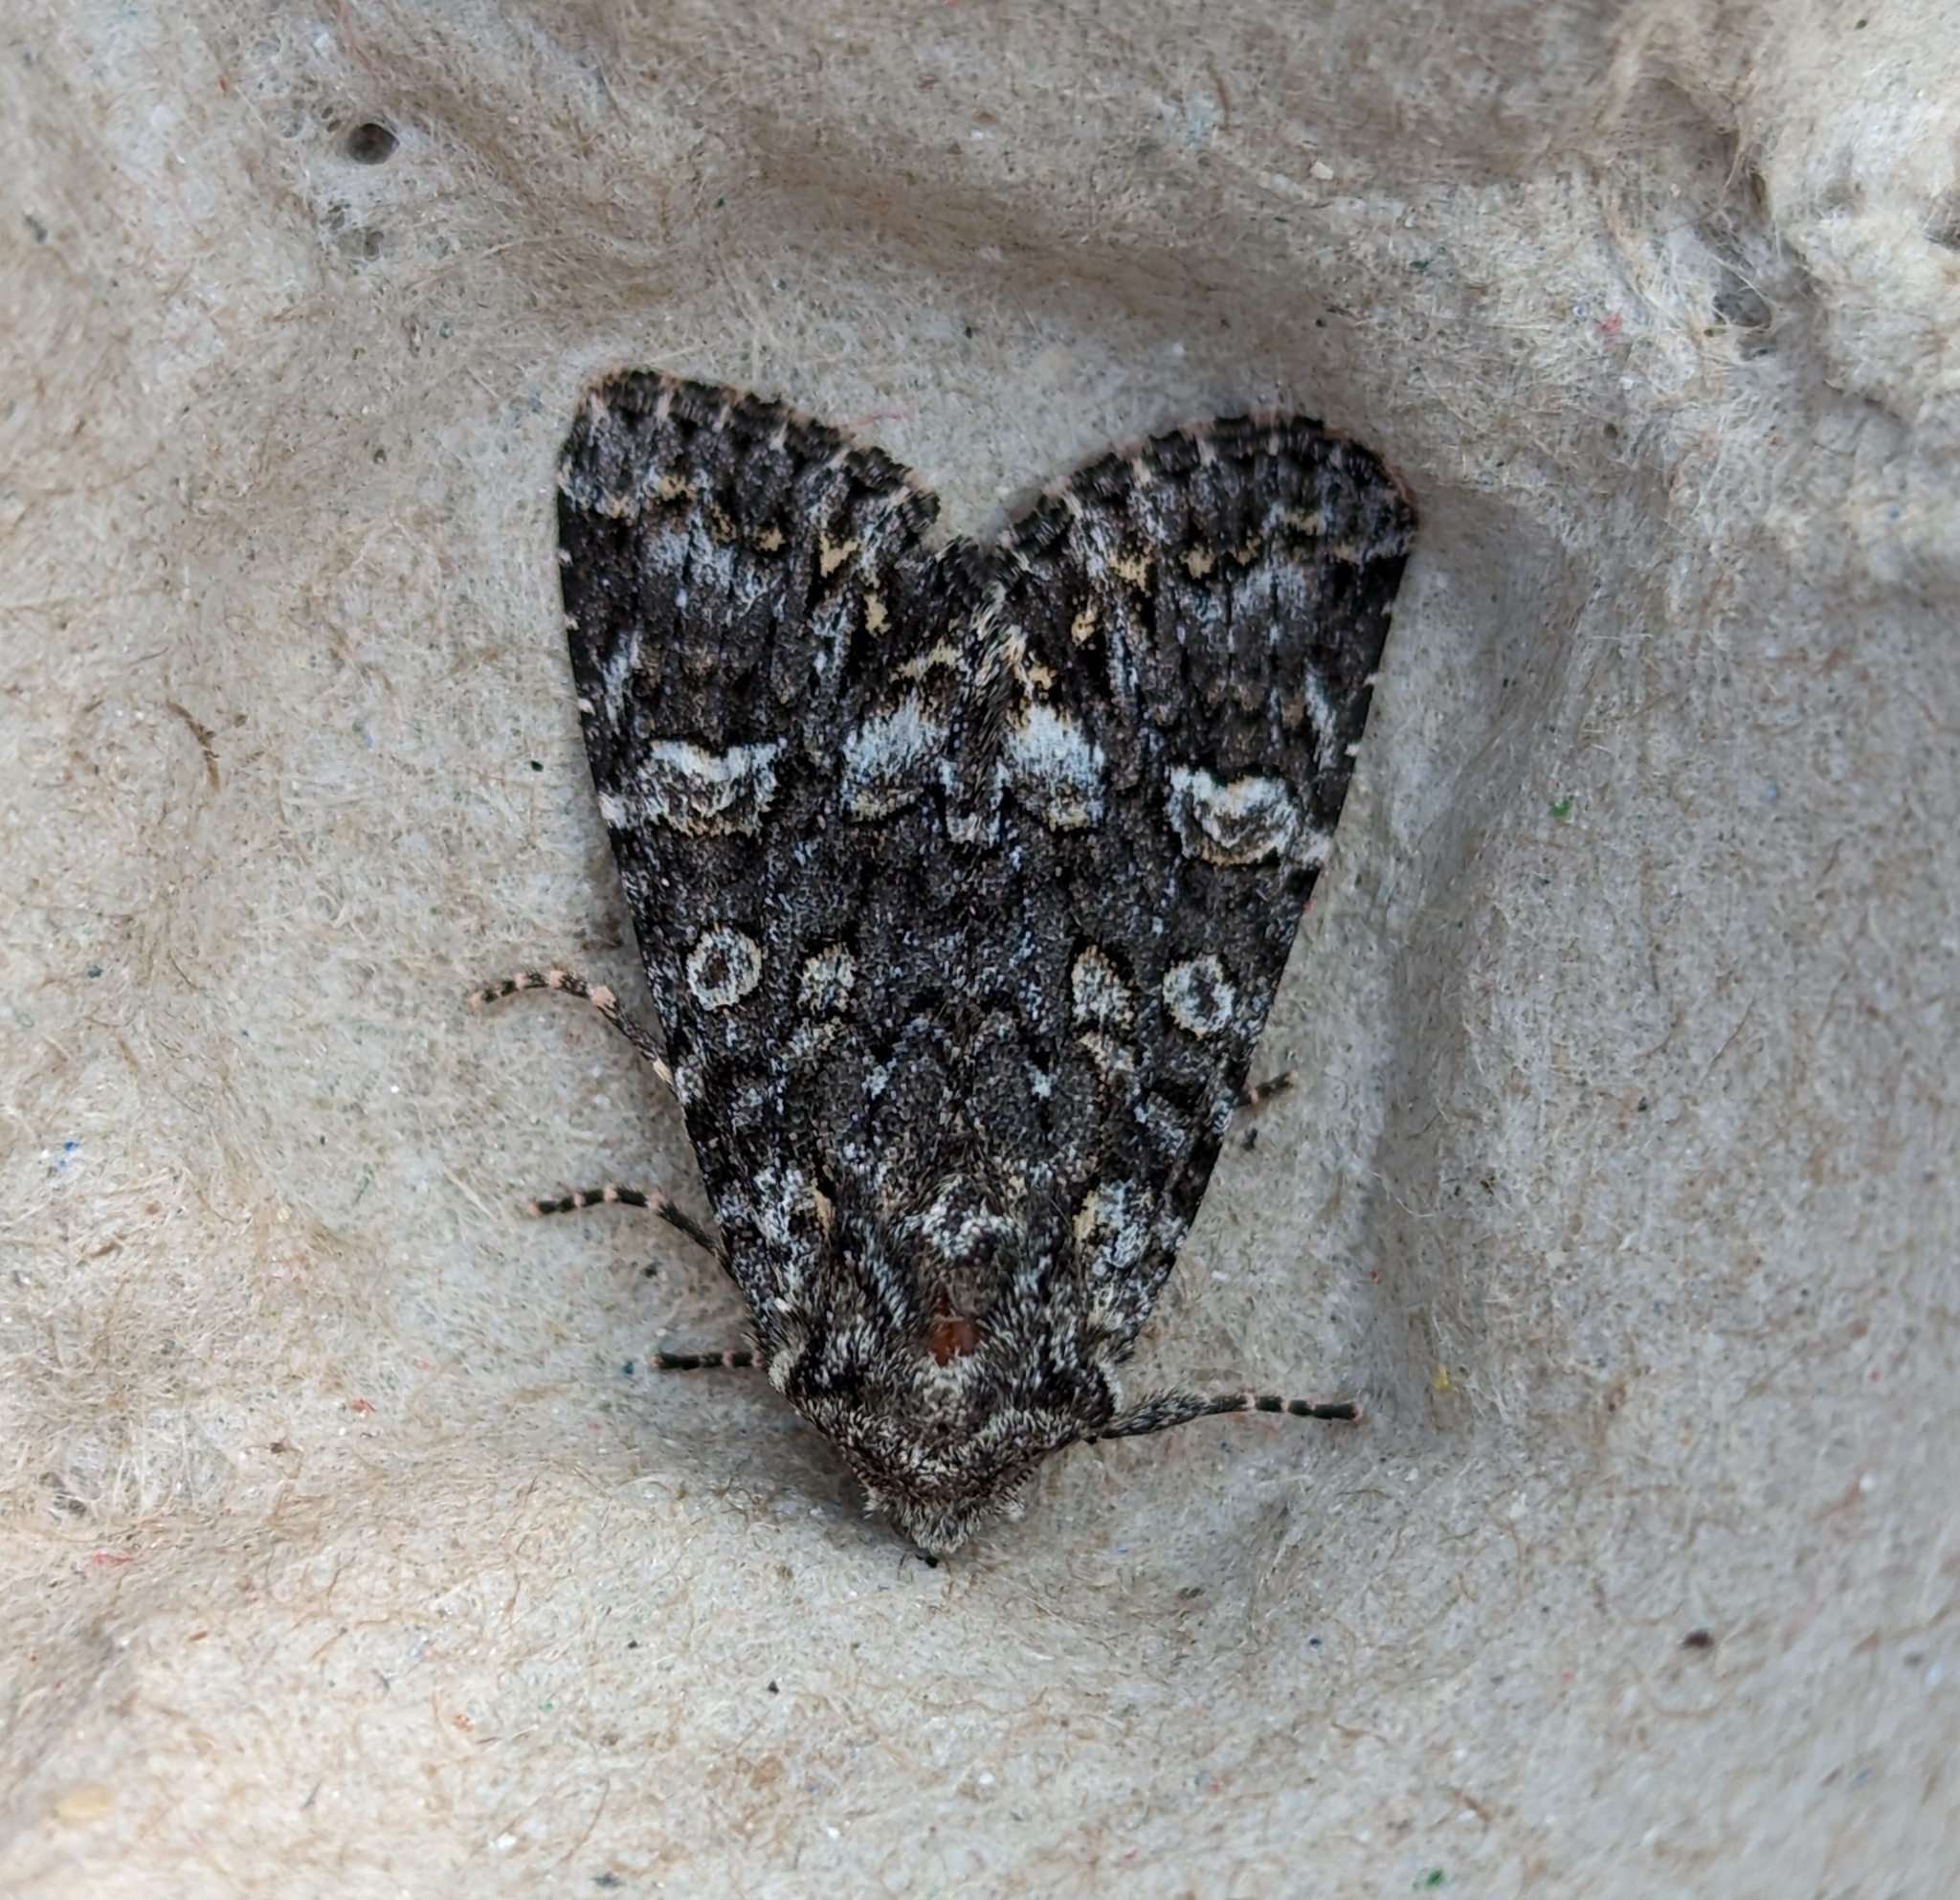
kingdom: Animalia
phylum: Arthropoda
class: Insecta
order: Lepidoptera
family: Noctuidae
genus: Papestra
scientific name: Papestra cristifera
